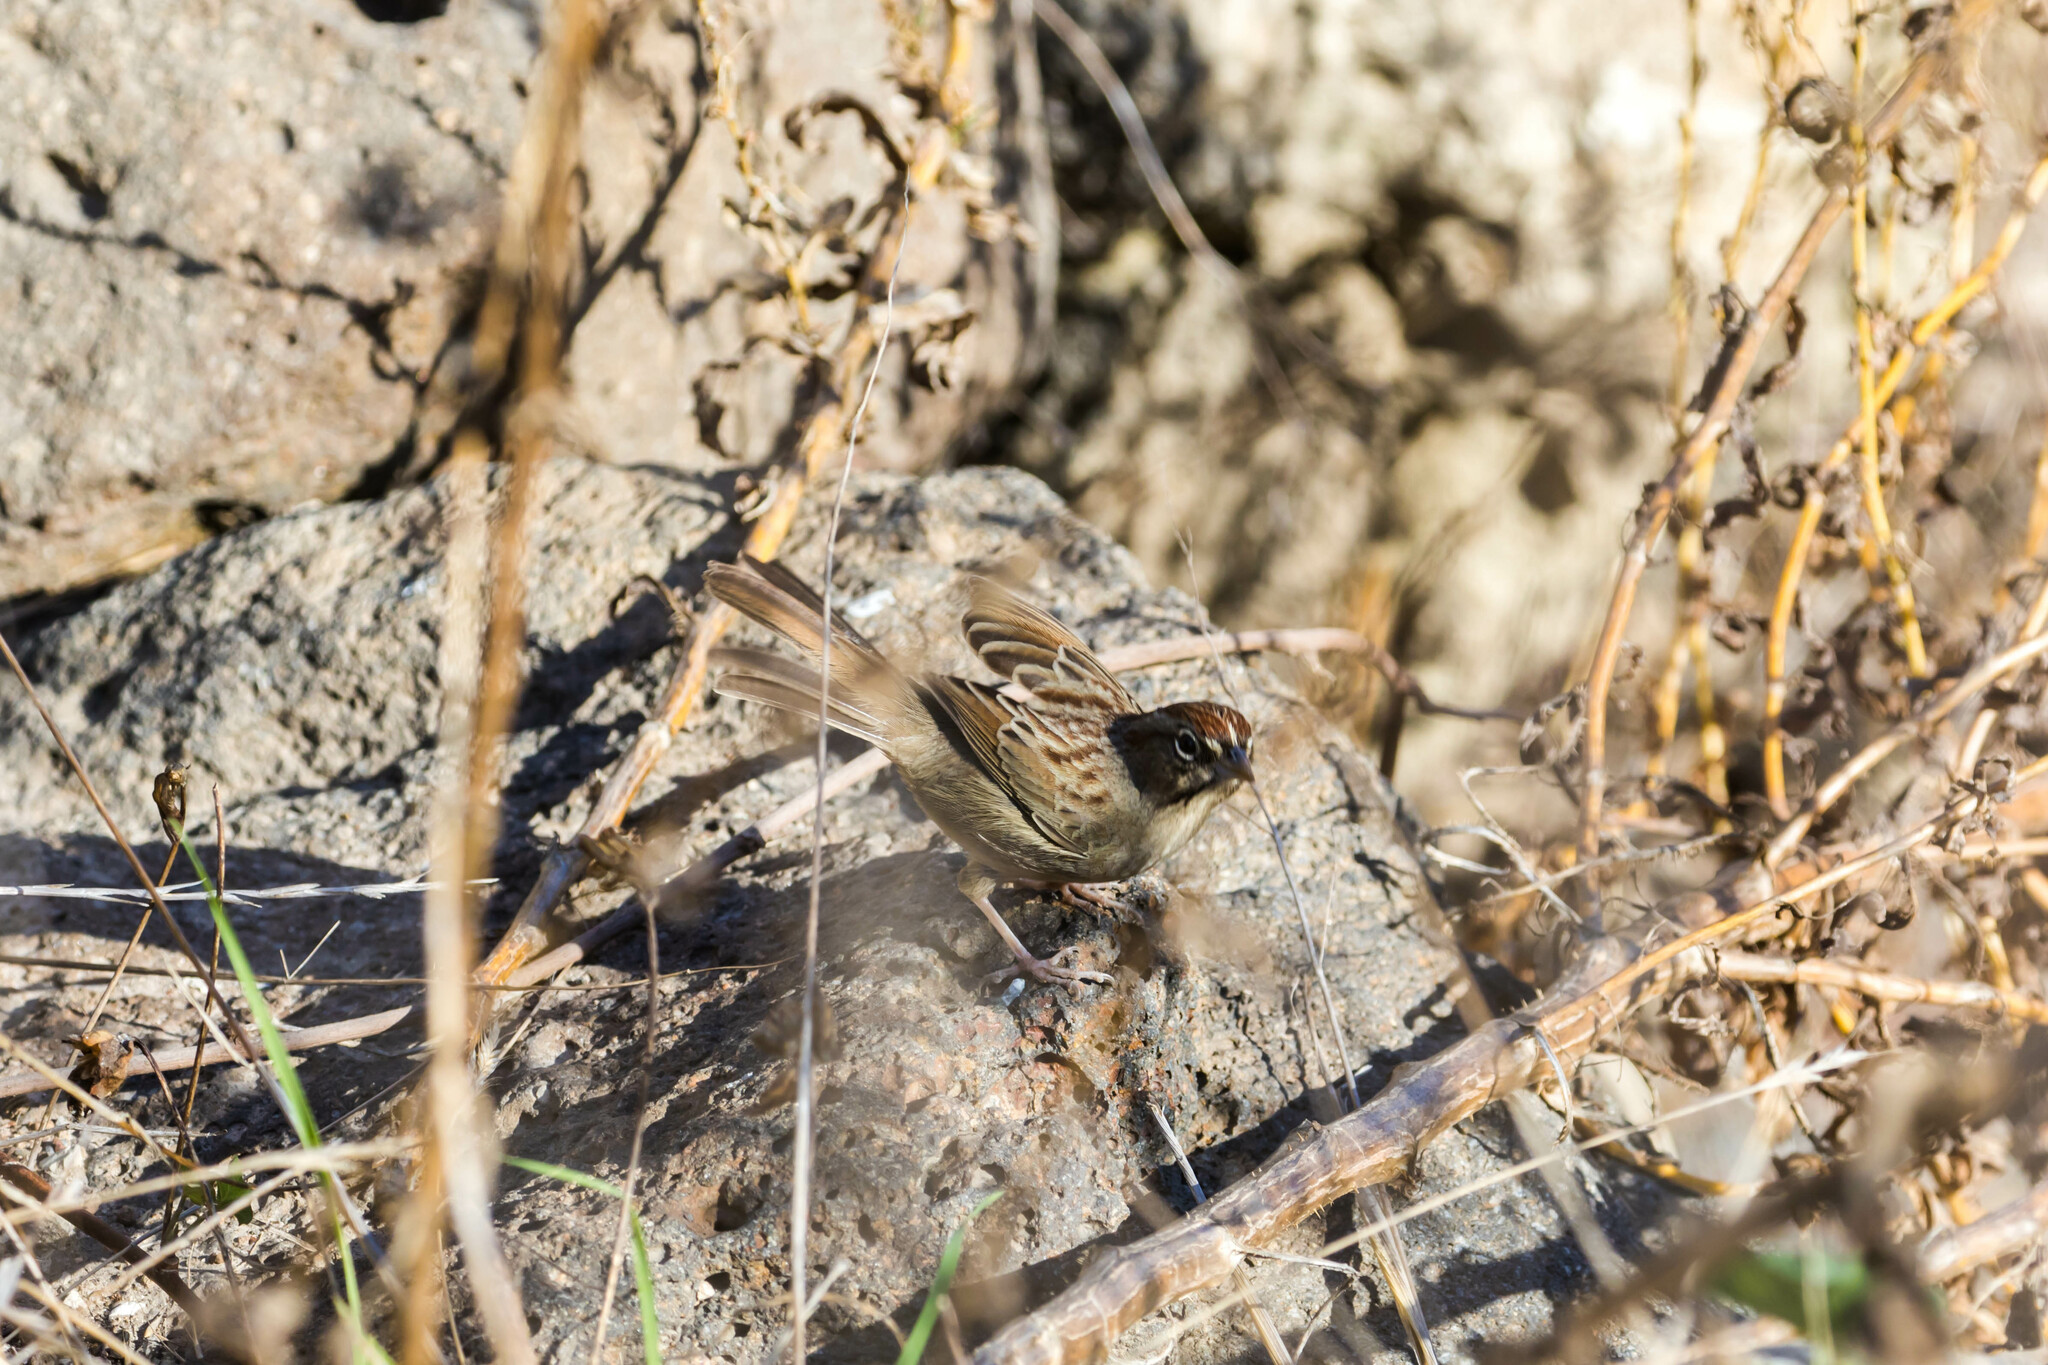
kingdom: Animalia
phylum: Chordata
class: Aves
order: Passeriformes
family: Passerellidae
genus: Aimophila
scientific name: Aimophila ruficeps
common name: Rufous-crowned sparrow
